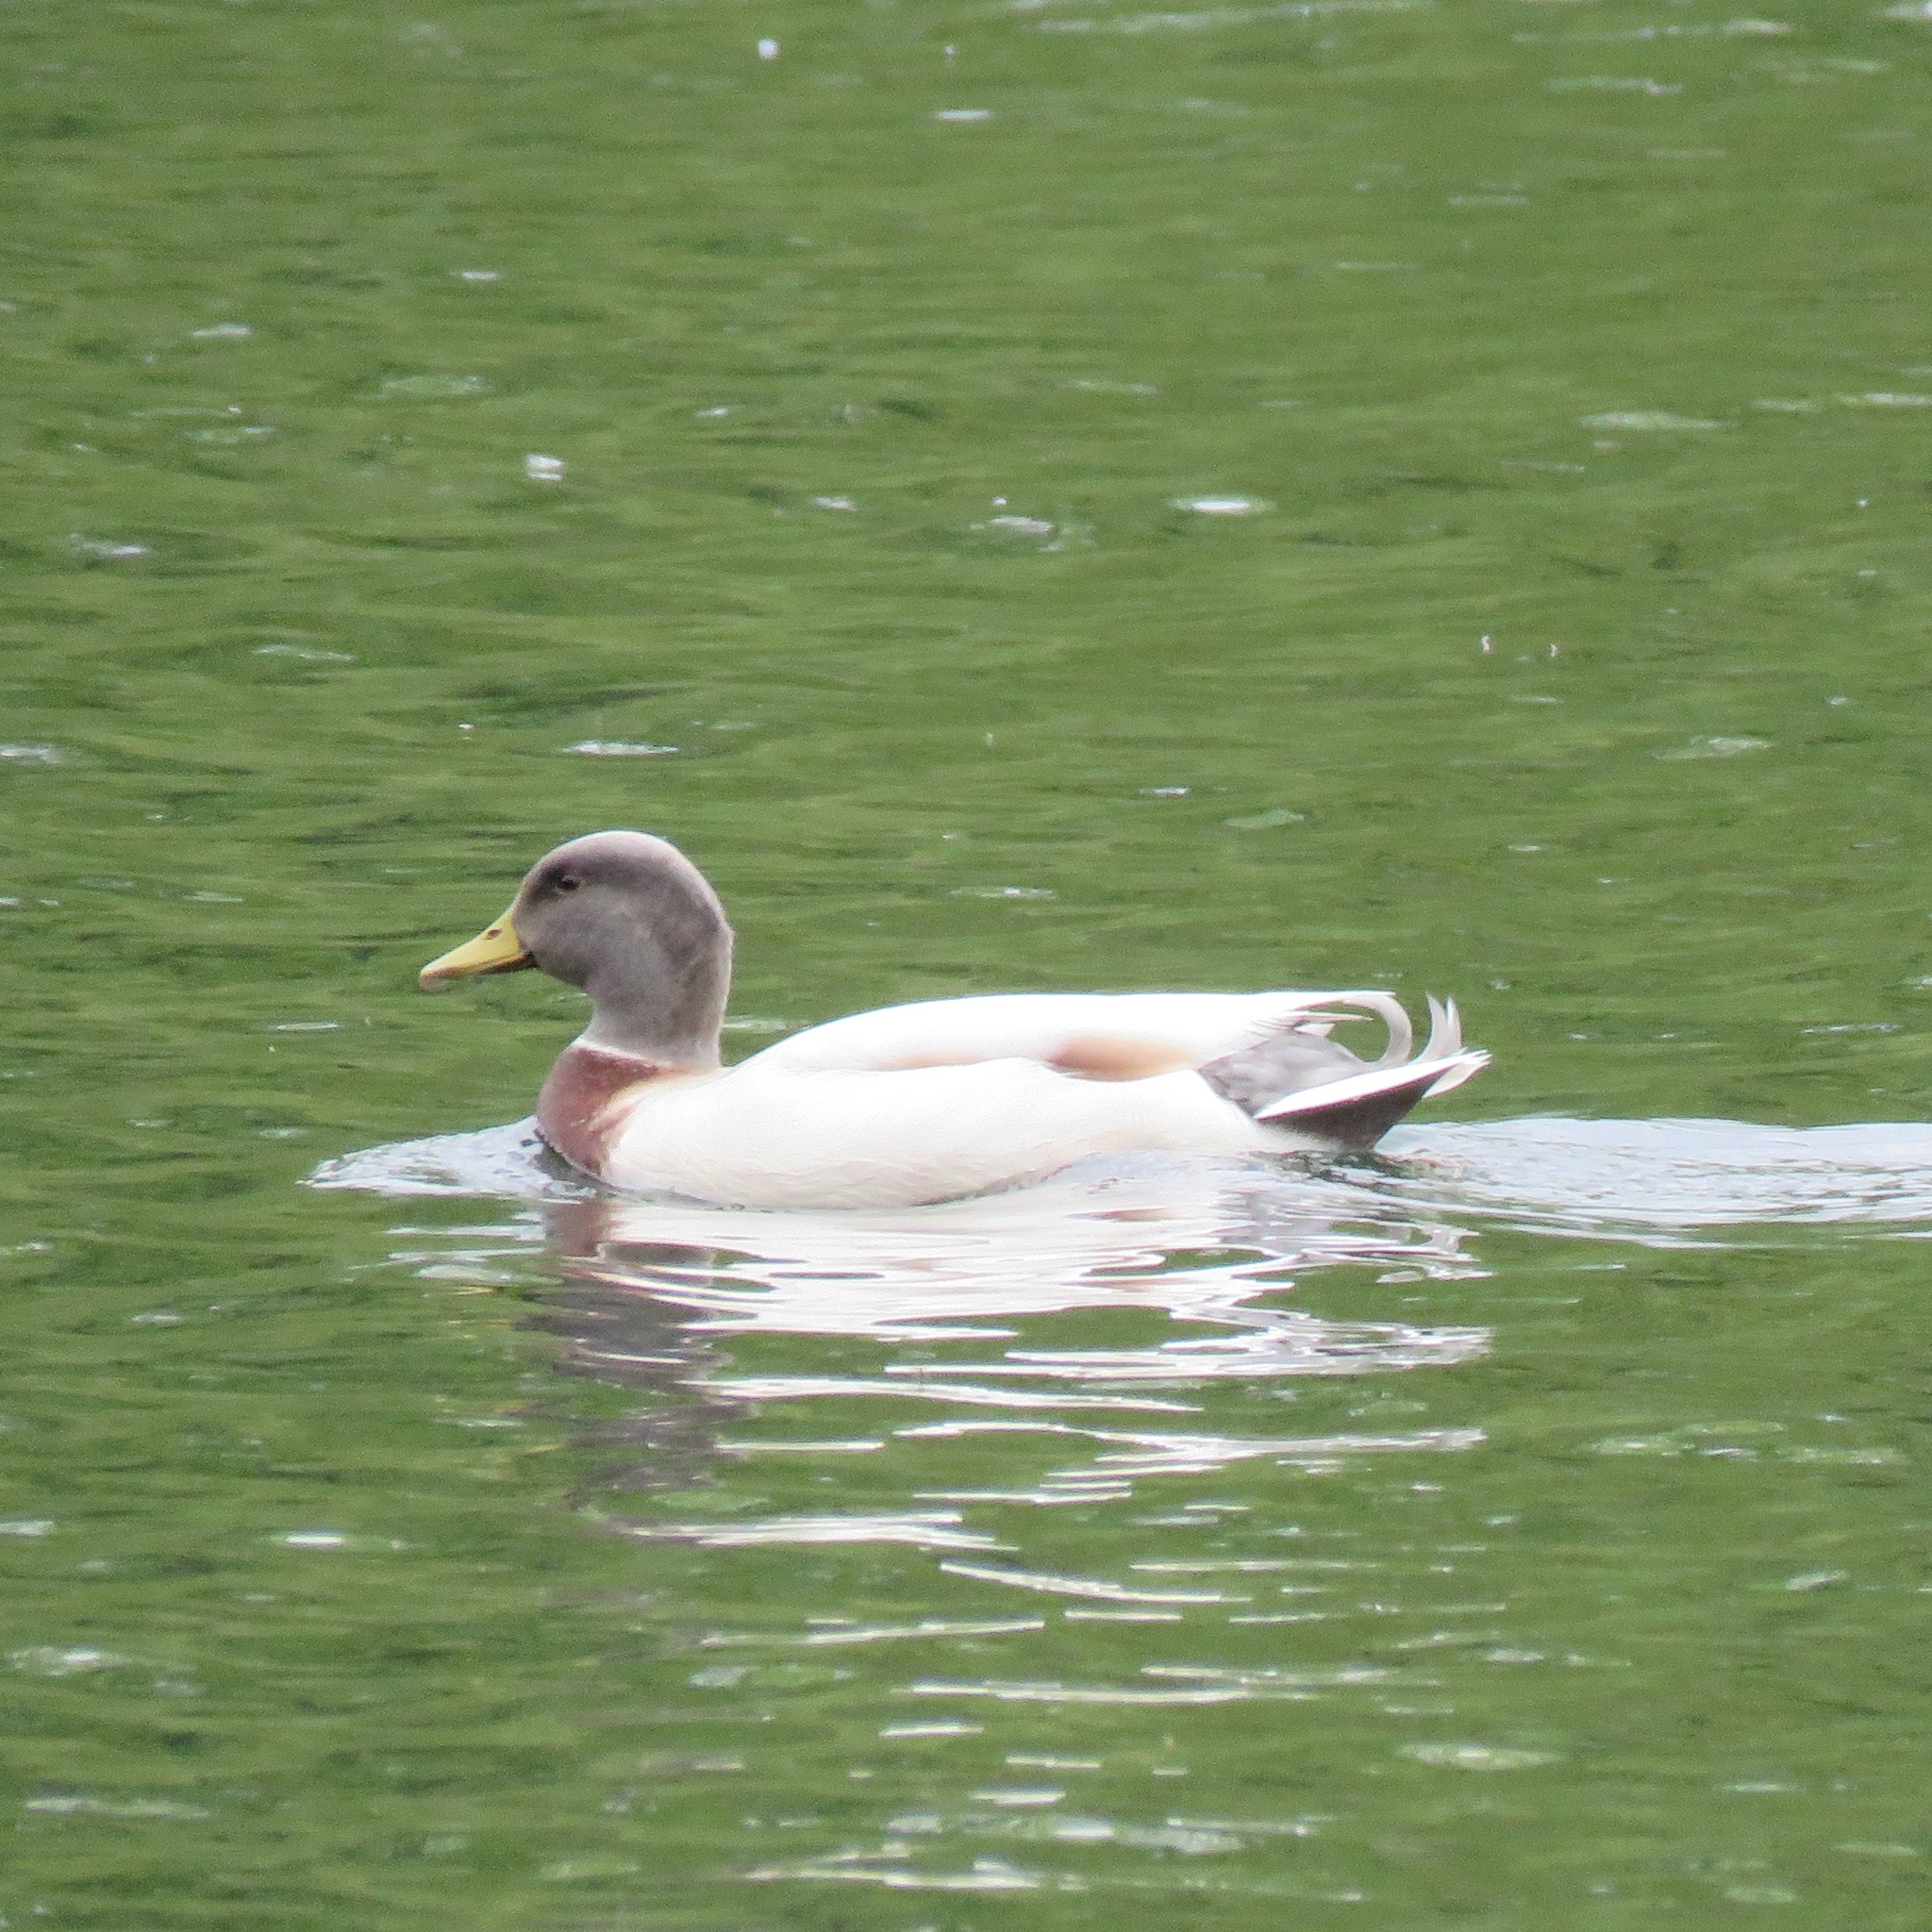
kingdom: Animalia
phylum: Chordata
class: Aves
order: Anseriformes
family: Anatidae
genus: Anas
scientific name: Anas platyrhynchos
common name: Mallard
